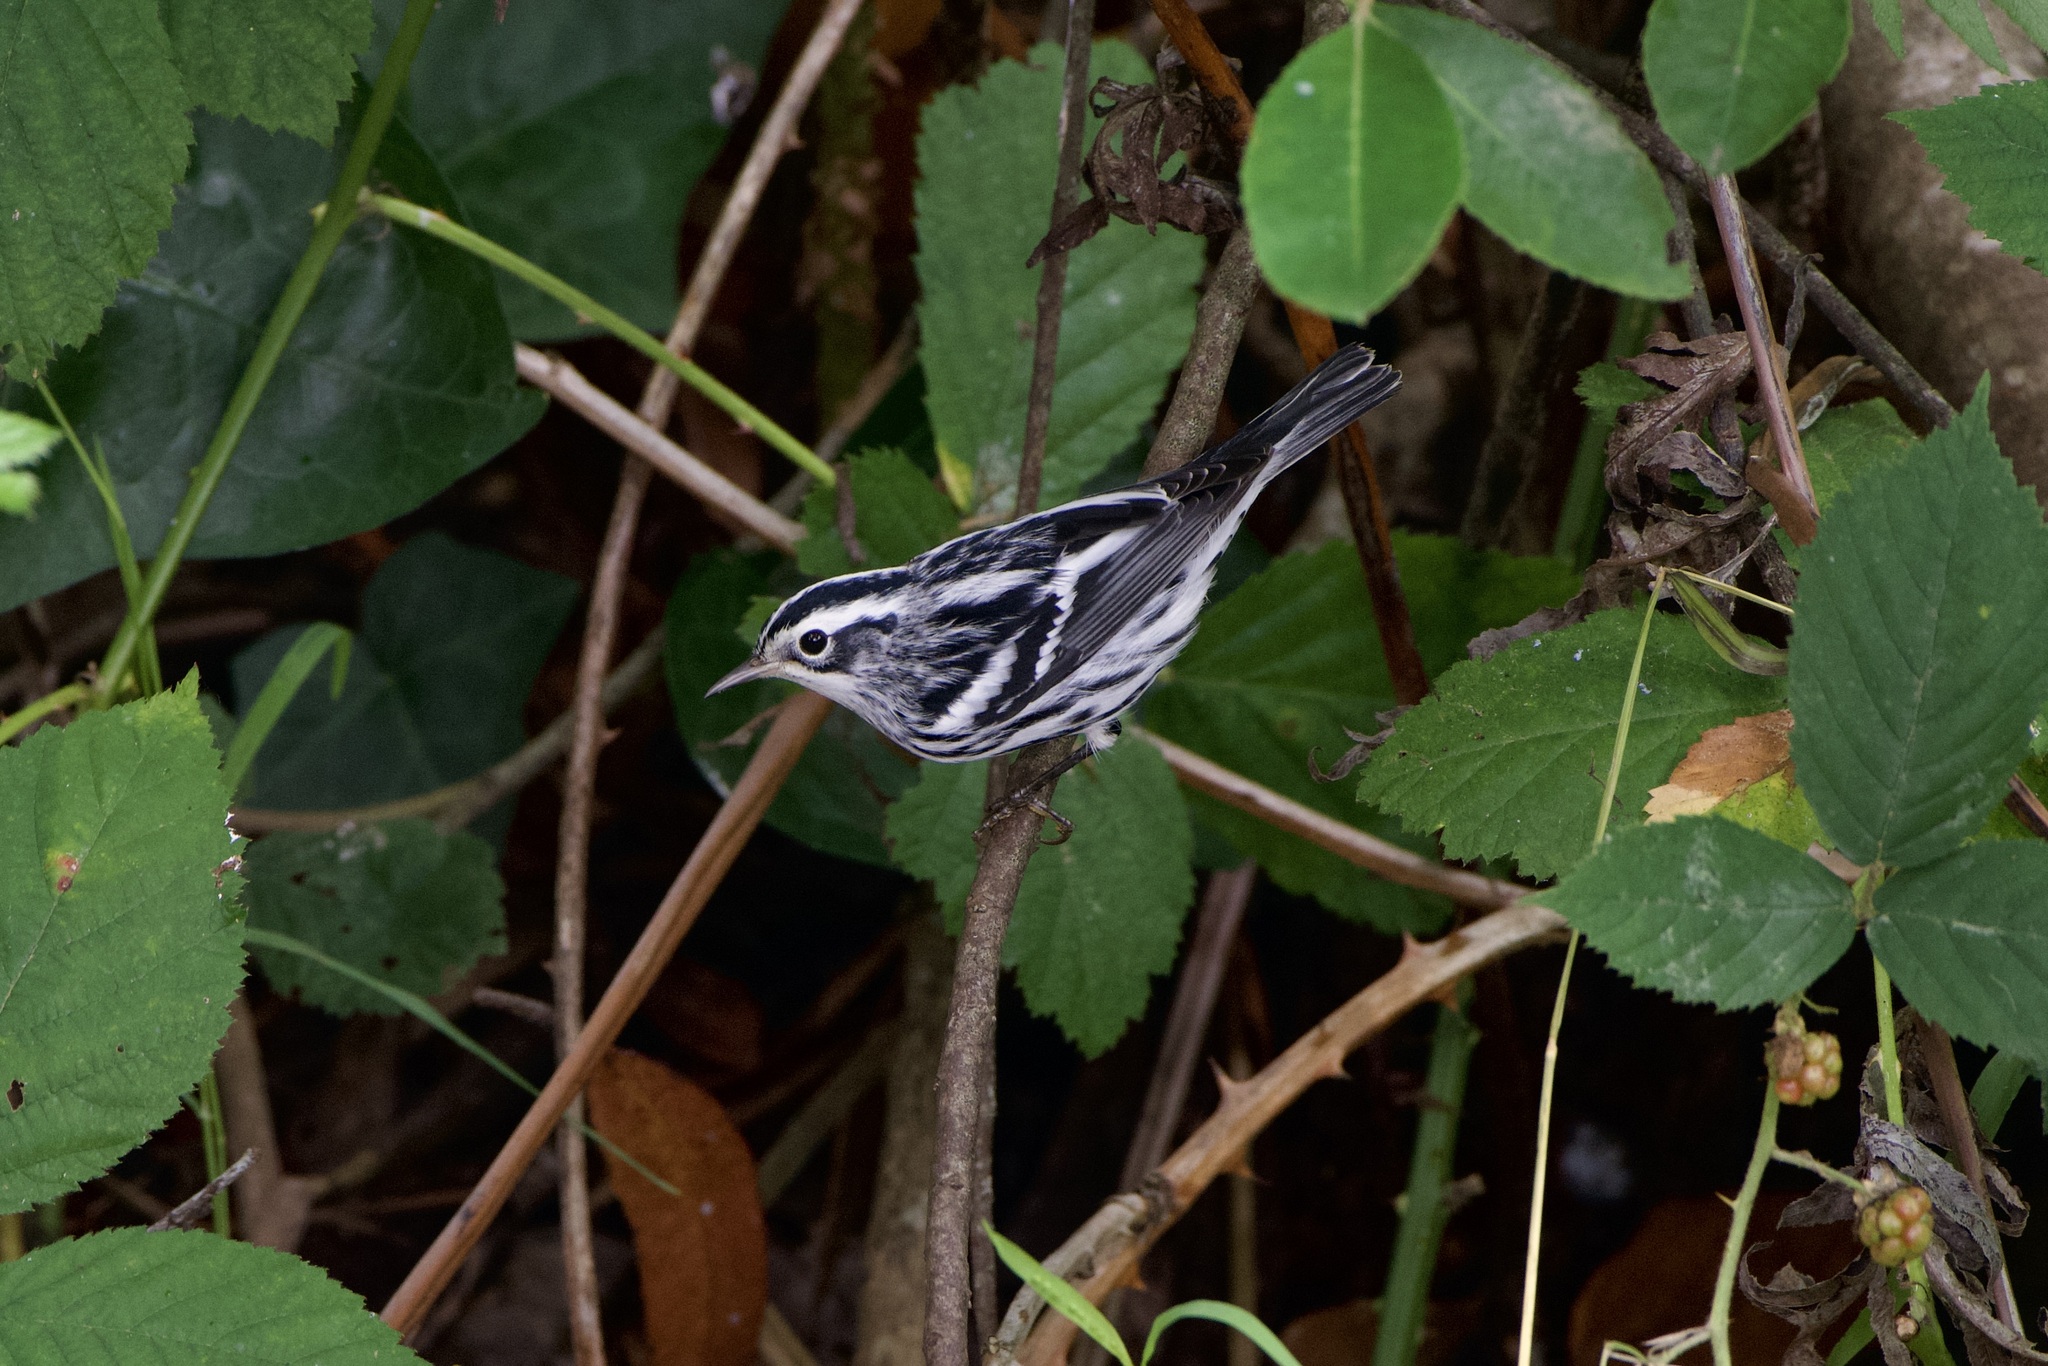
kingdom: Animalia
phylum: Chordata
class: Aves
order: Passeriformes
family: Parulidae
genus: Mniotilta
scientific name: Mniotilta varia
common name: Black-and-white warbler
